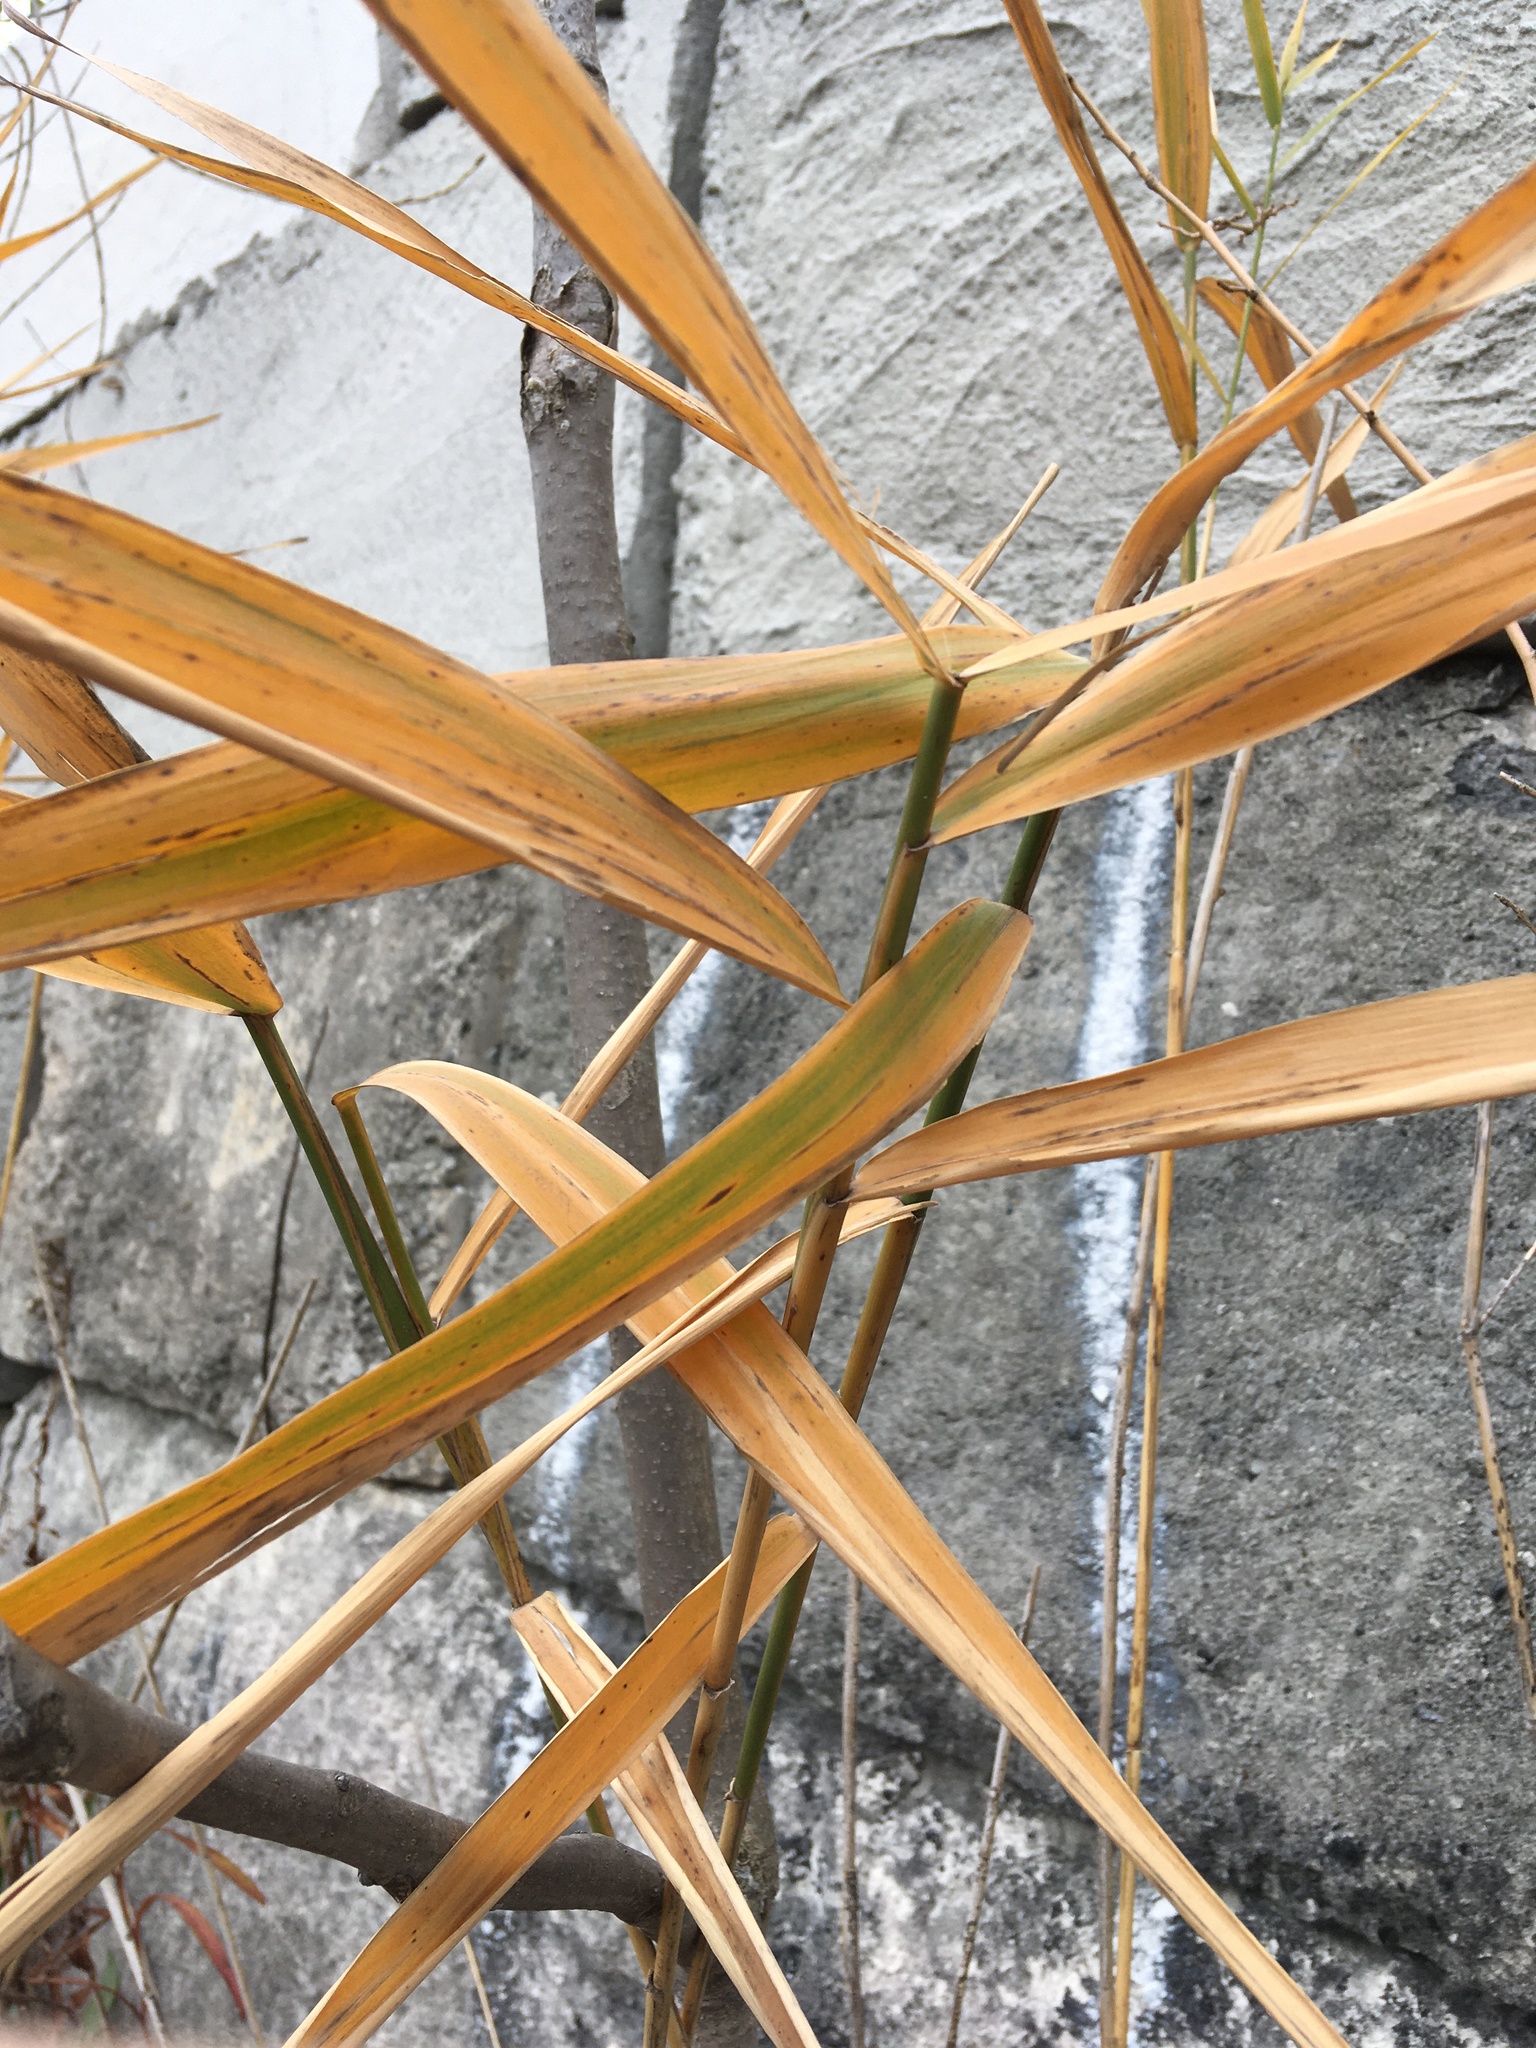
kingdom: Plantae
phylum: Tracheophyta
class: Liliopsida
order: Poales
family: Poaceae
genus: Phragmites
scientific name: Phragmites australis
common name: Common reed
